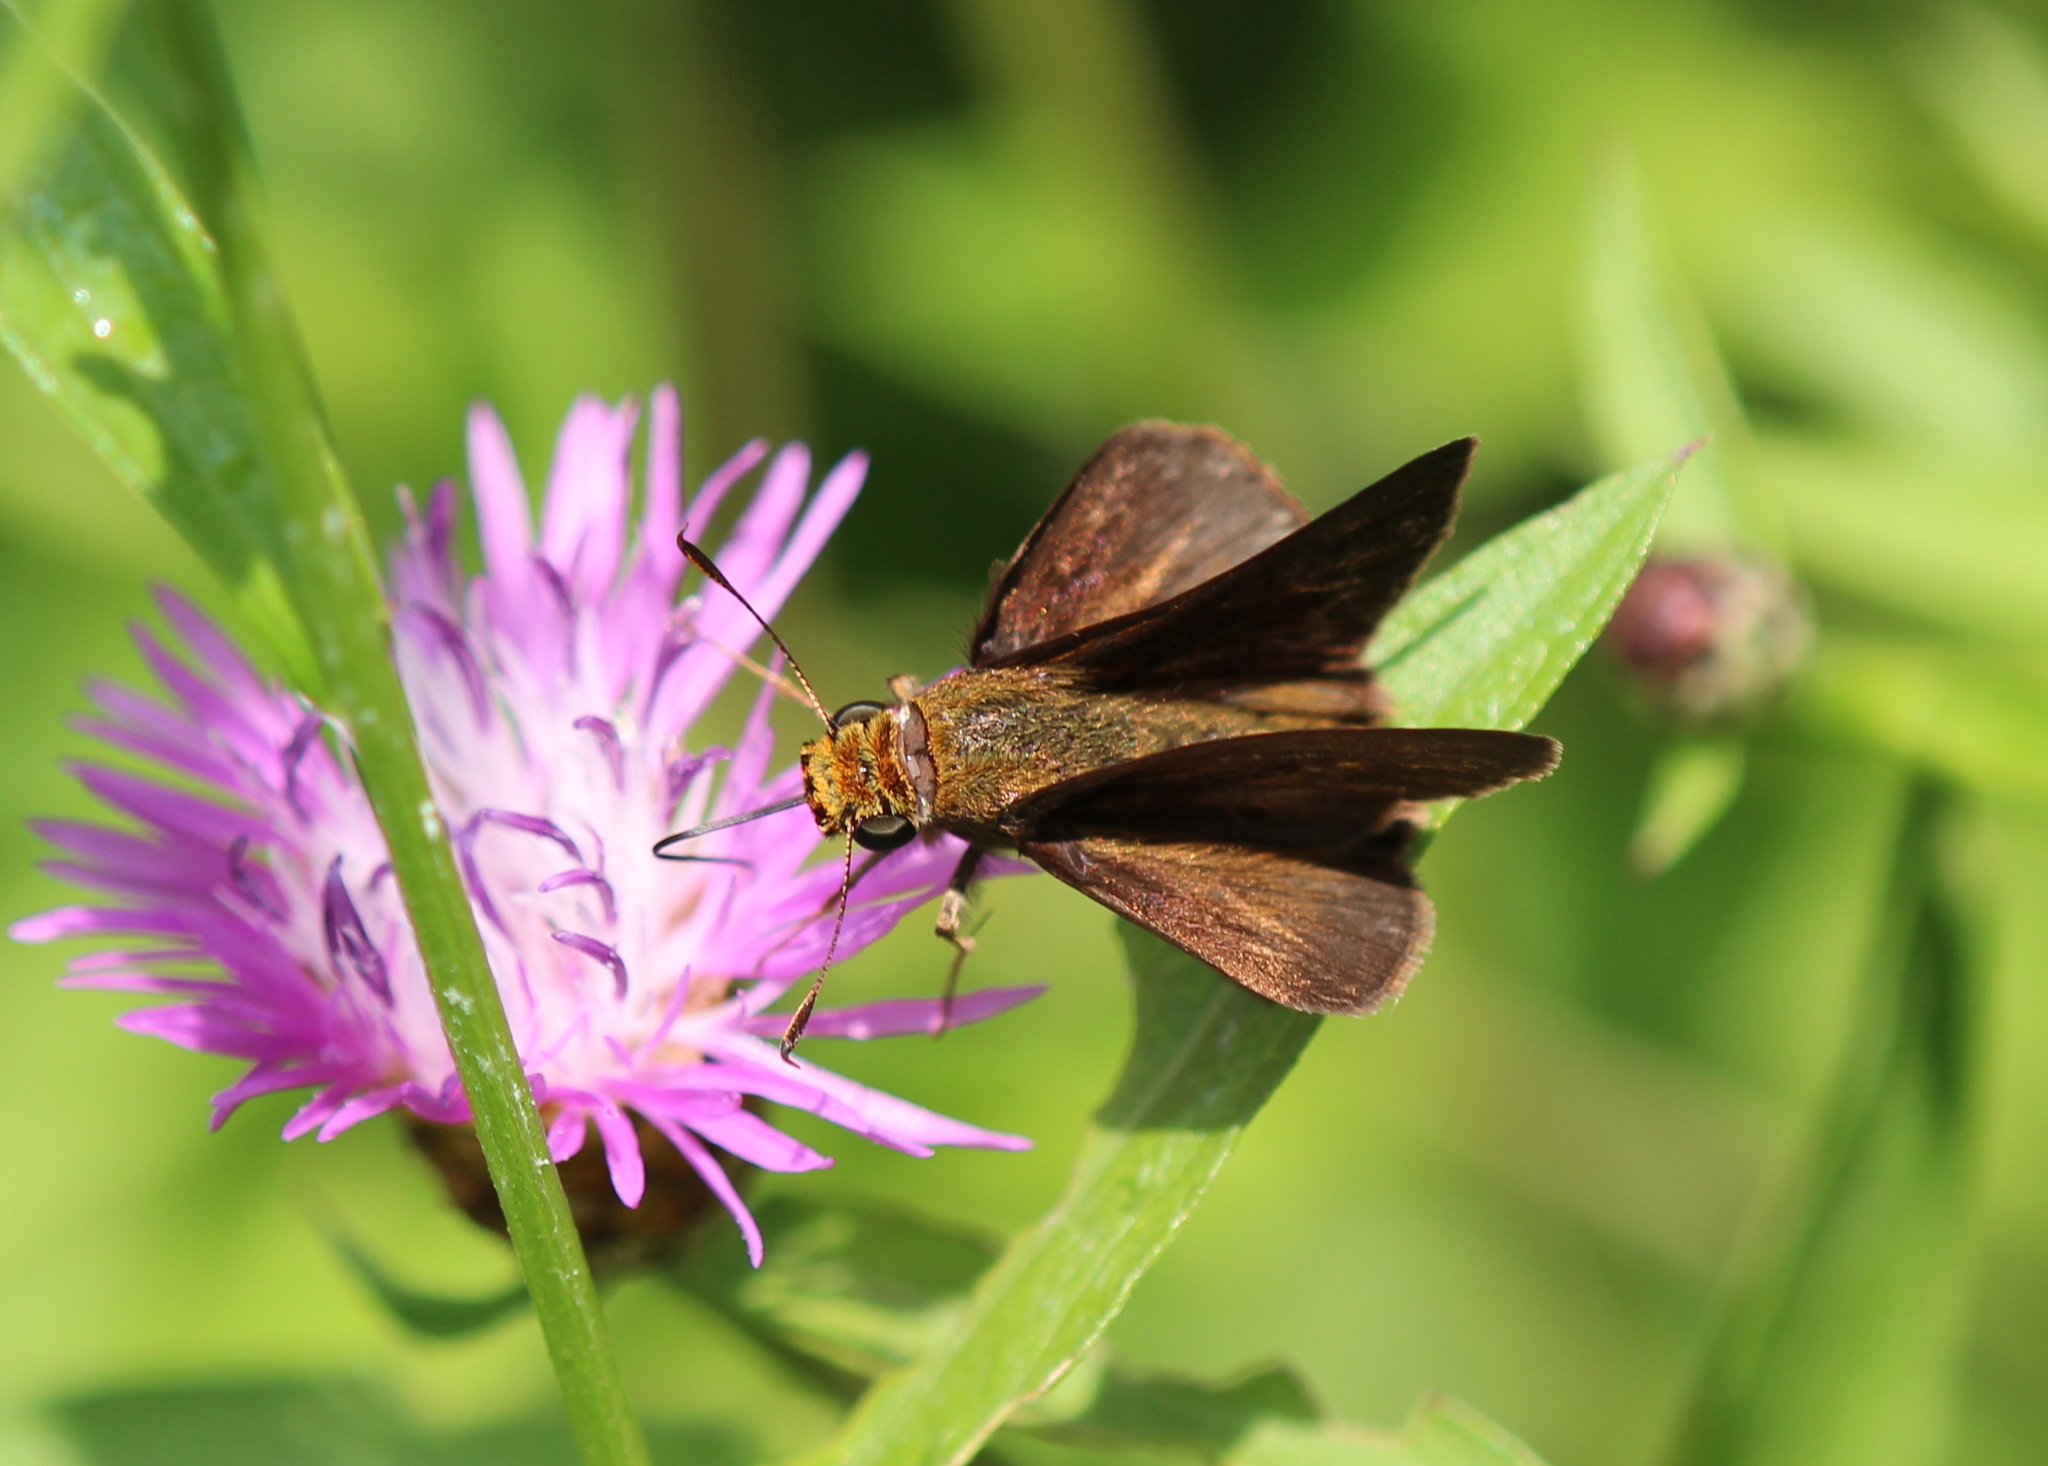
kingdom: Animalia
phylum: Arthropoda
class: Insecta
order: Lepidoptera
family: Hesperiidae
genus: Euphyes
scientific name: Euphyes vestris
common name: Dun skipper
